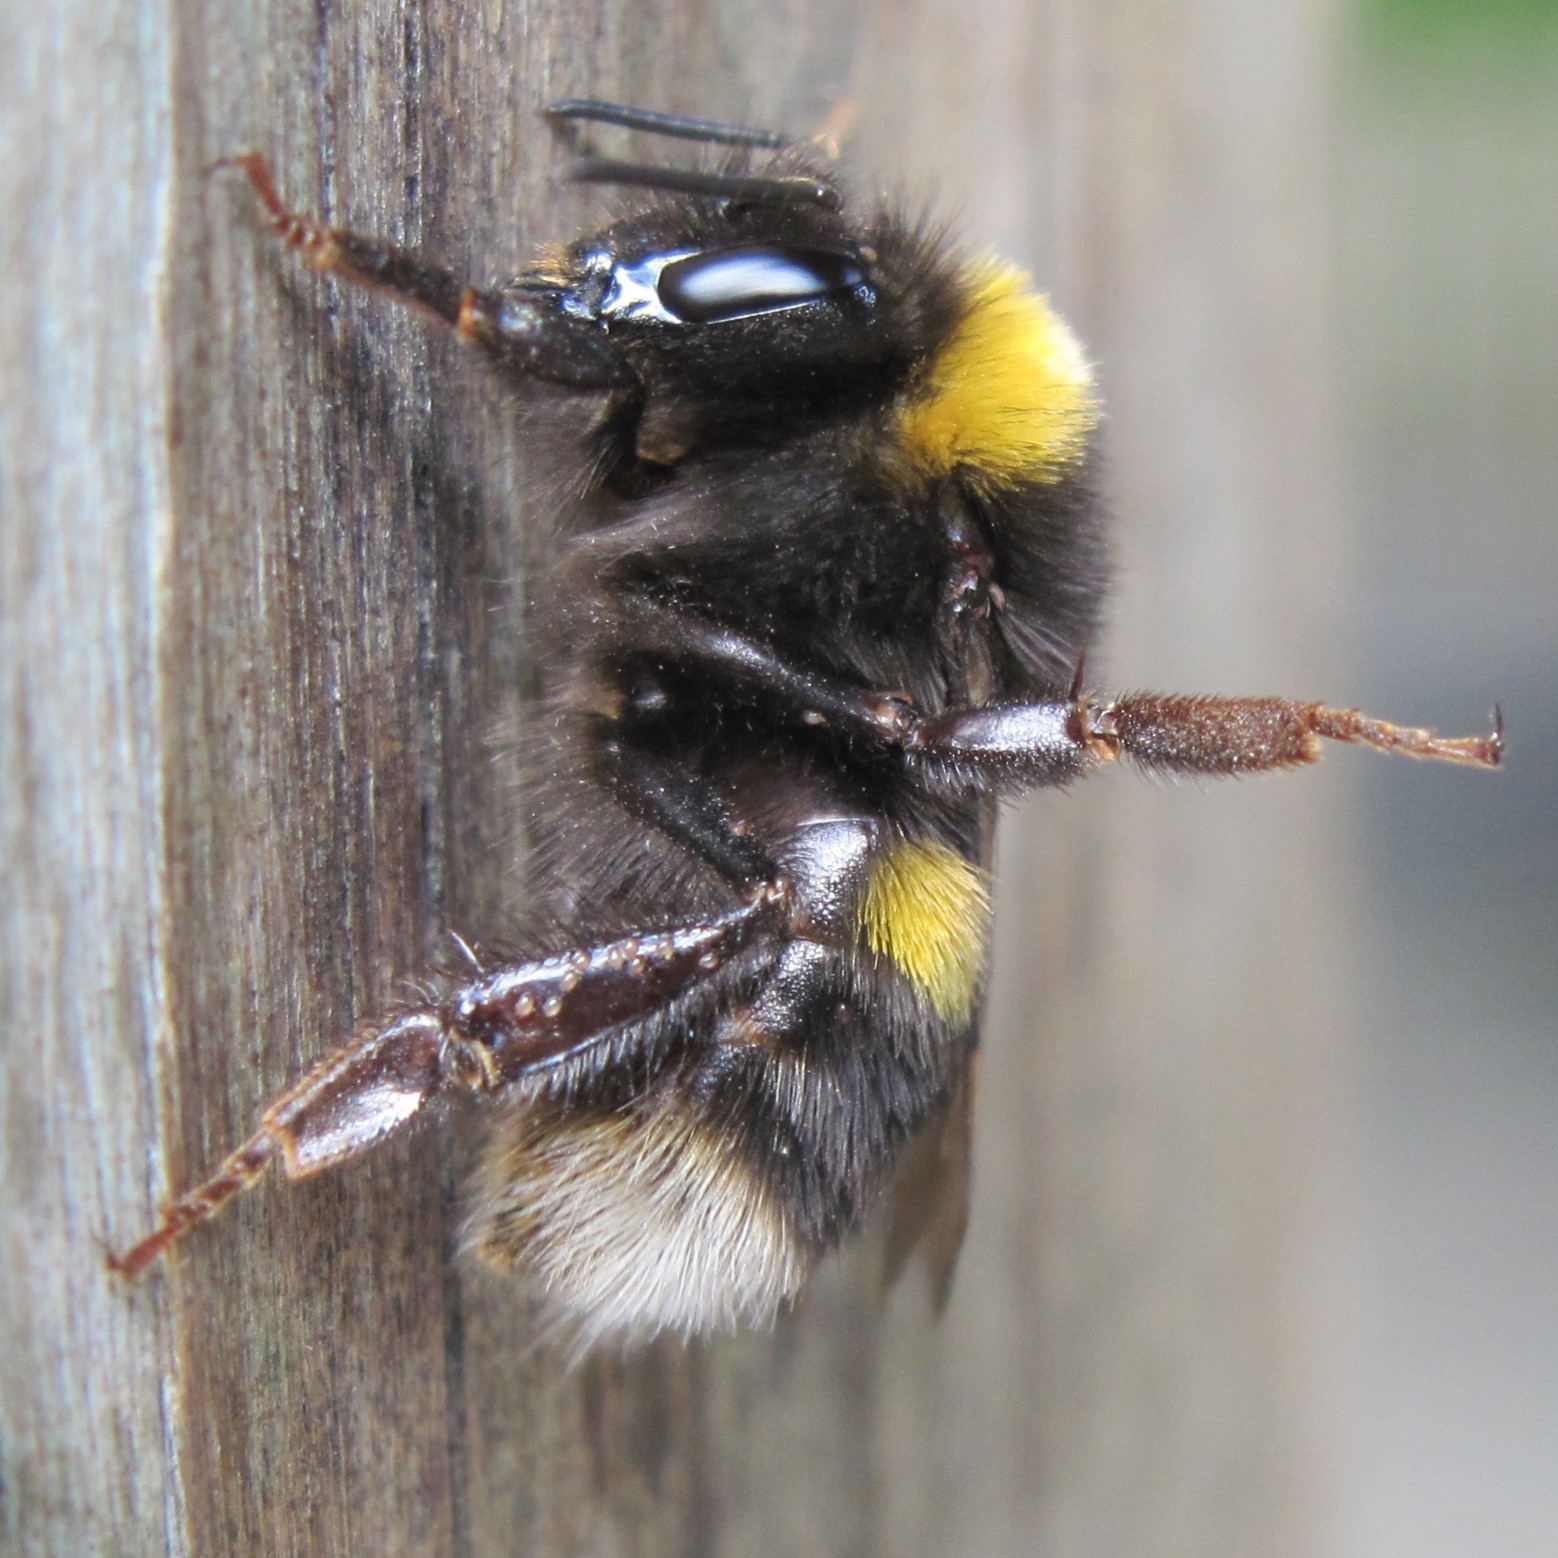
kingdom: Animalia
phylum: Arthropoda
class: Insecta
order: Hymenoptera
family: Apidae
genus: Bombus
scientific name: Bombus terrestris
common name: Buff-tailed bumblebee
